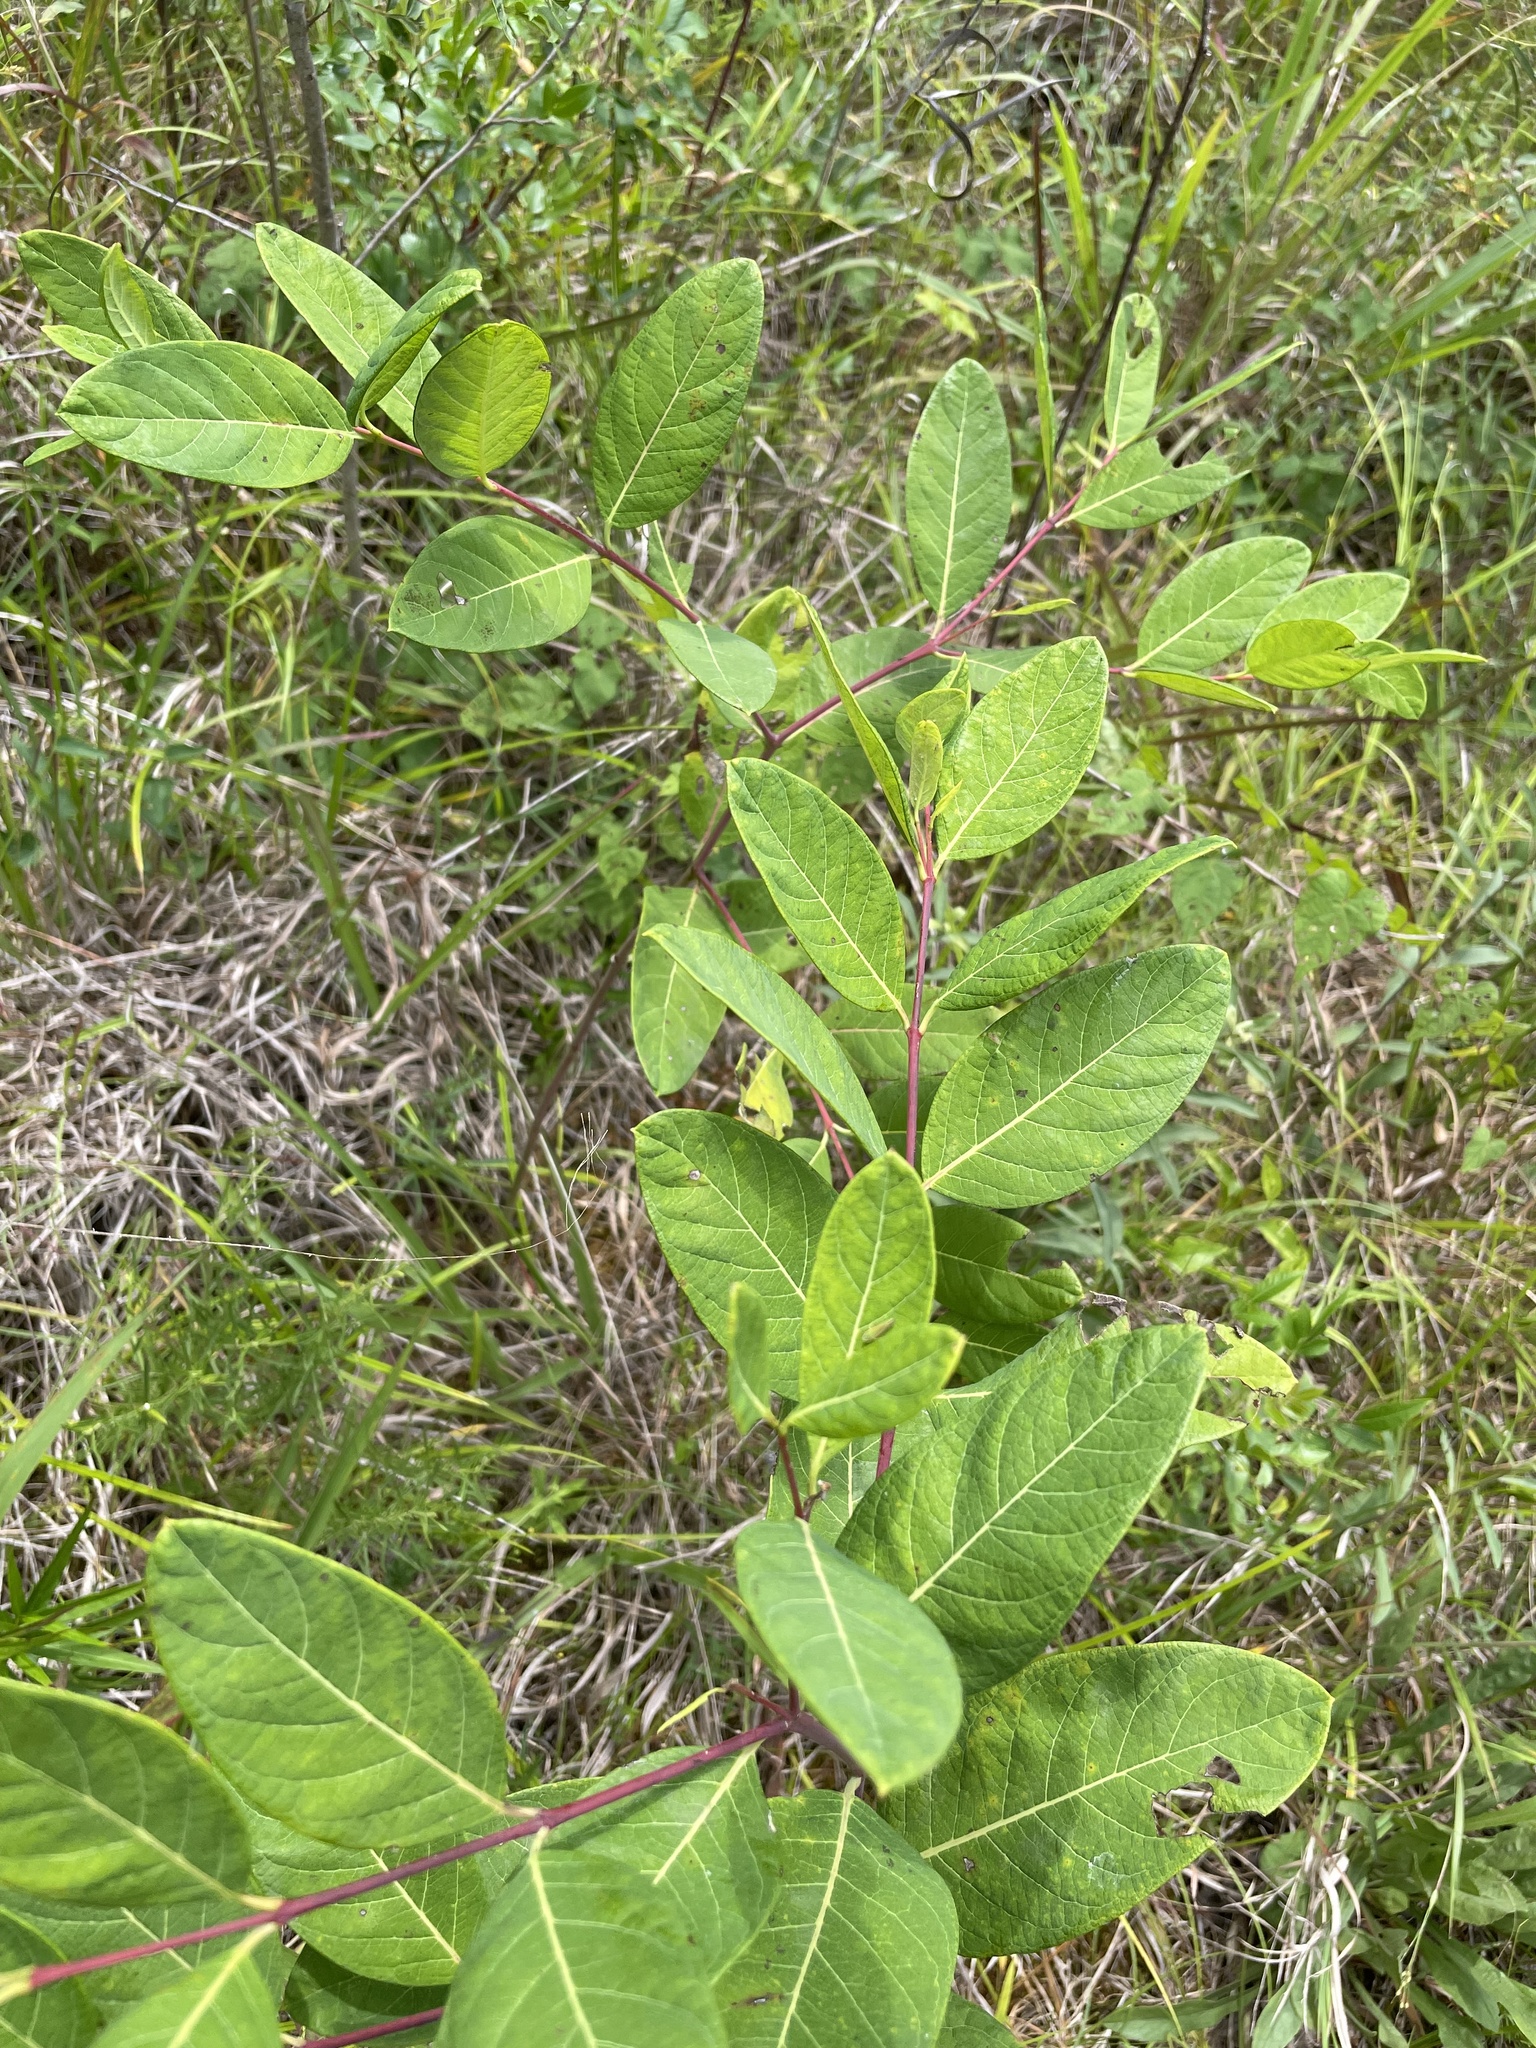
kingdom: Plantae
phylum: Tracheophyta
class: Magnoliopsida
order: Gentianales
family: Apocynaceae
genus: Apocynum
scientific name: Apocynum cannabinum
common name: Hemp dogbane
